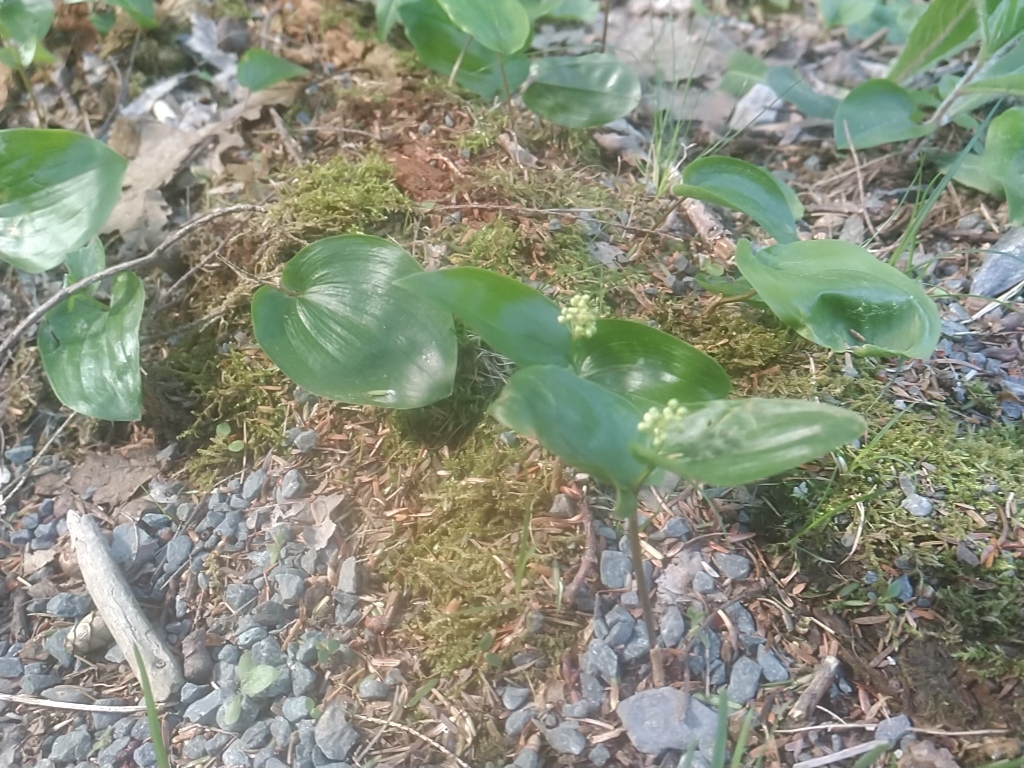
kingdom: Plantae
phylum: Tracheophyta
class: Liliopsida
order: Asparagales
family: Asparagaceae
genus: Maianthemum
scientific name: Maianthemum canadense
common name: False lily-of-the-valley
